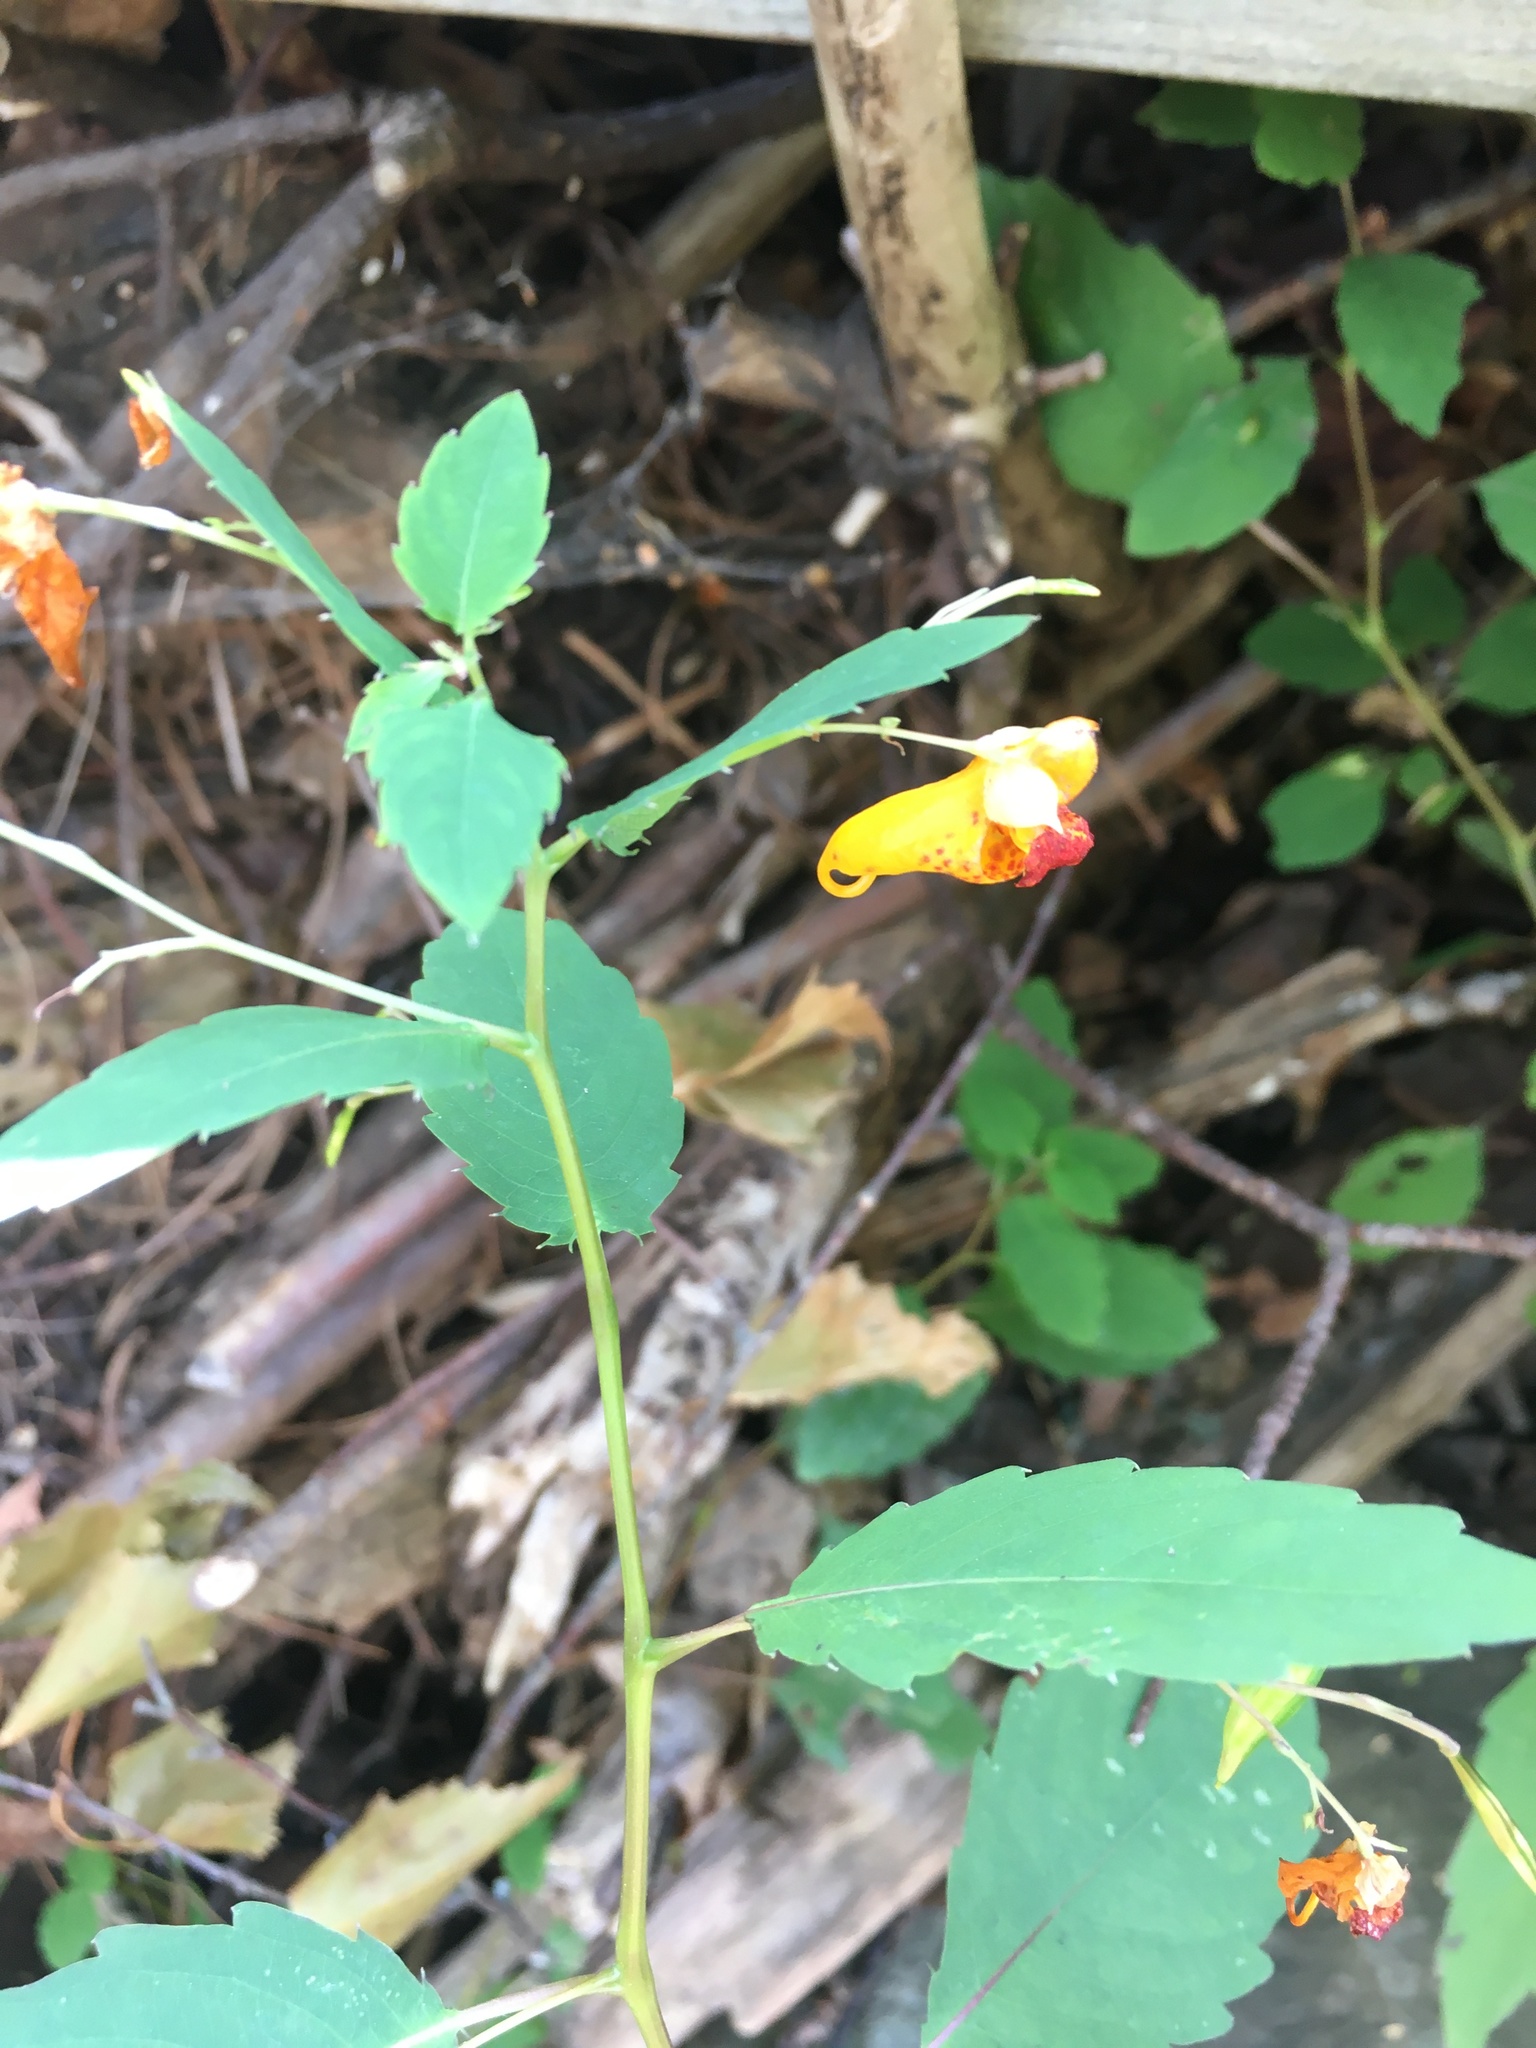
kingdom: Plantae
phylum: Tracheophyta
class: Magnoliopsida
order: Ericales
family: Balsaminaceae
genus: Impatiens
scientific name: Impatiens capensis
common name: Orange balsam
